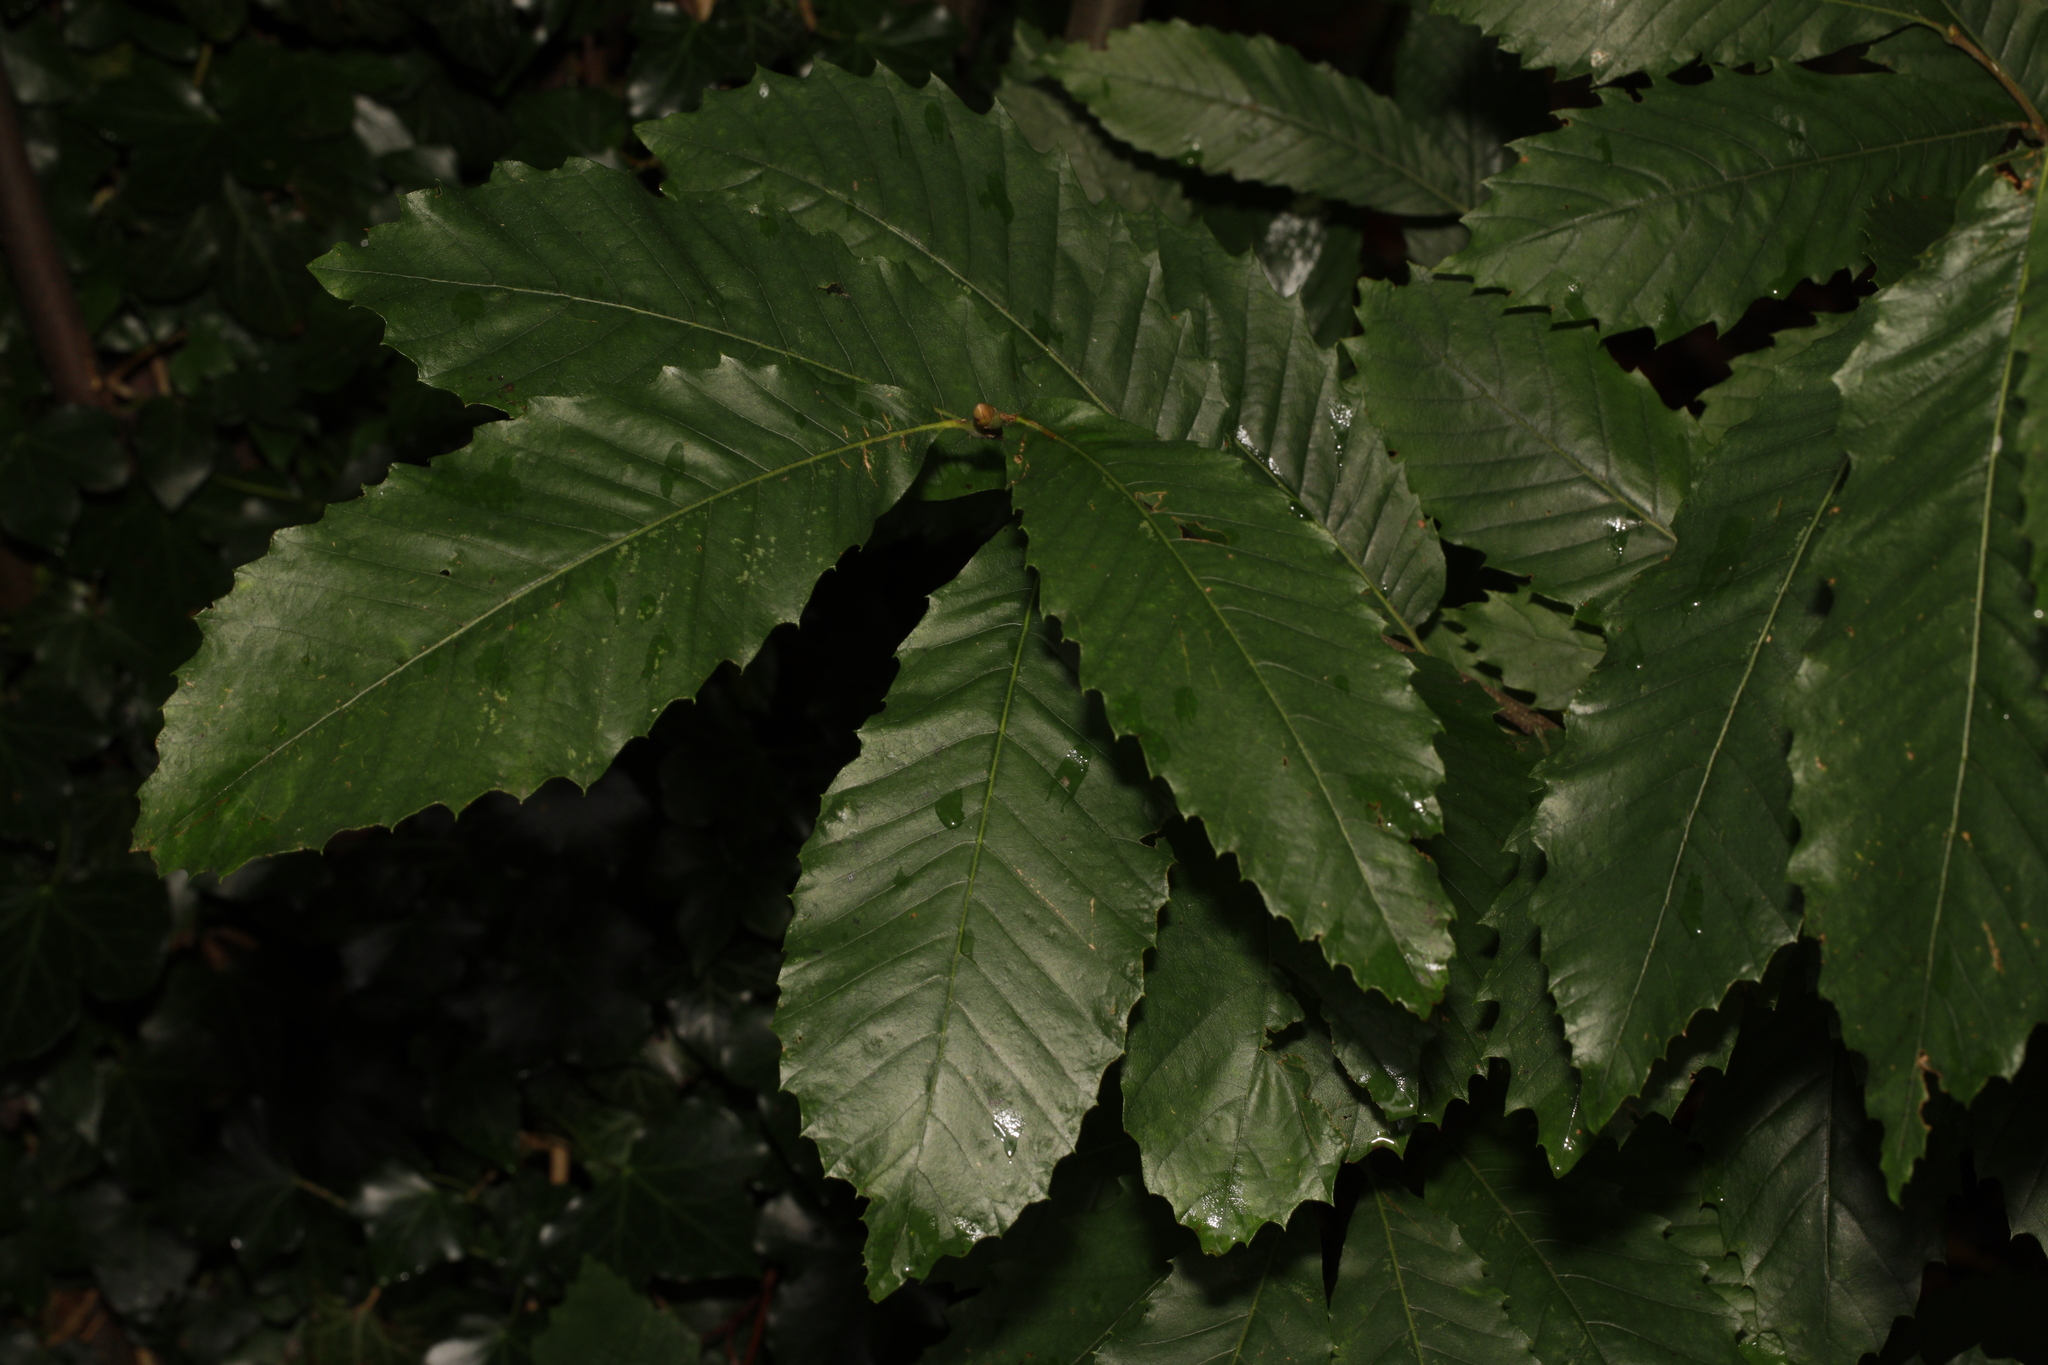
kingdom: Plantae
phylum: Tracheophyta
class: Magnoliopsida
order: Fagales
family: Fagaceae
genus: Castanea
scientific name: Castanea sativa
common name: Sweet chestnut
